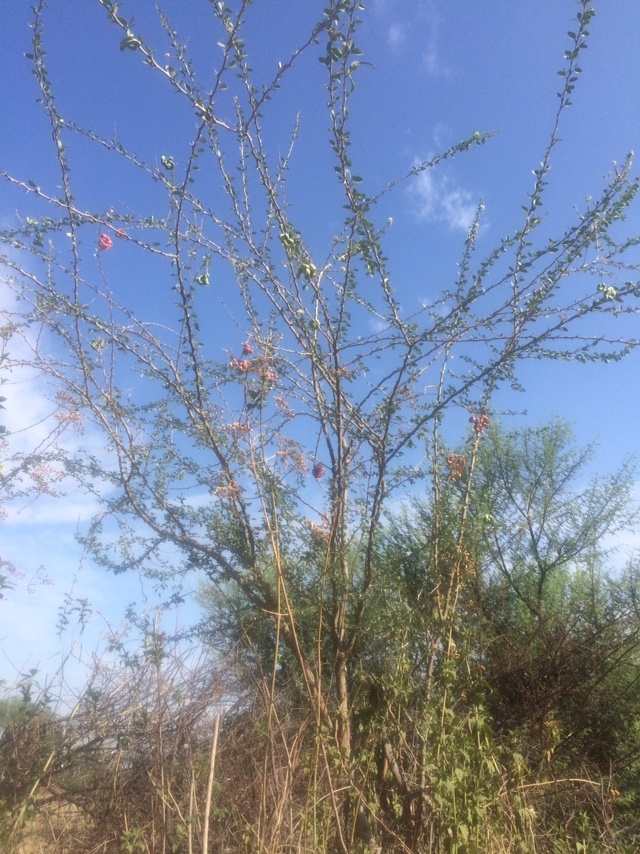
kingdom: Plantae
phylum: Tracheophyta
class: Magnoliopsida
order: Fabales
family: Fabaceae
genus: Pithecellobium
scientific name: Pithecellobium dulce
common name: Monkeypod
